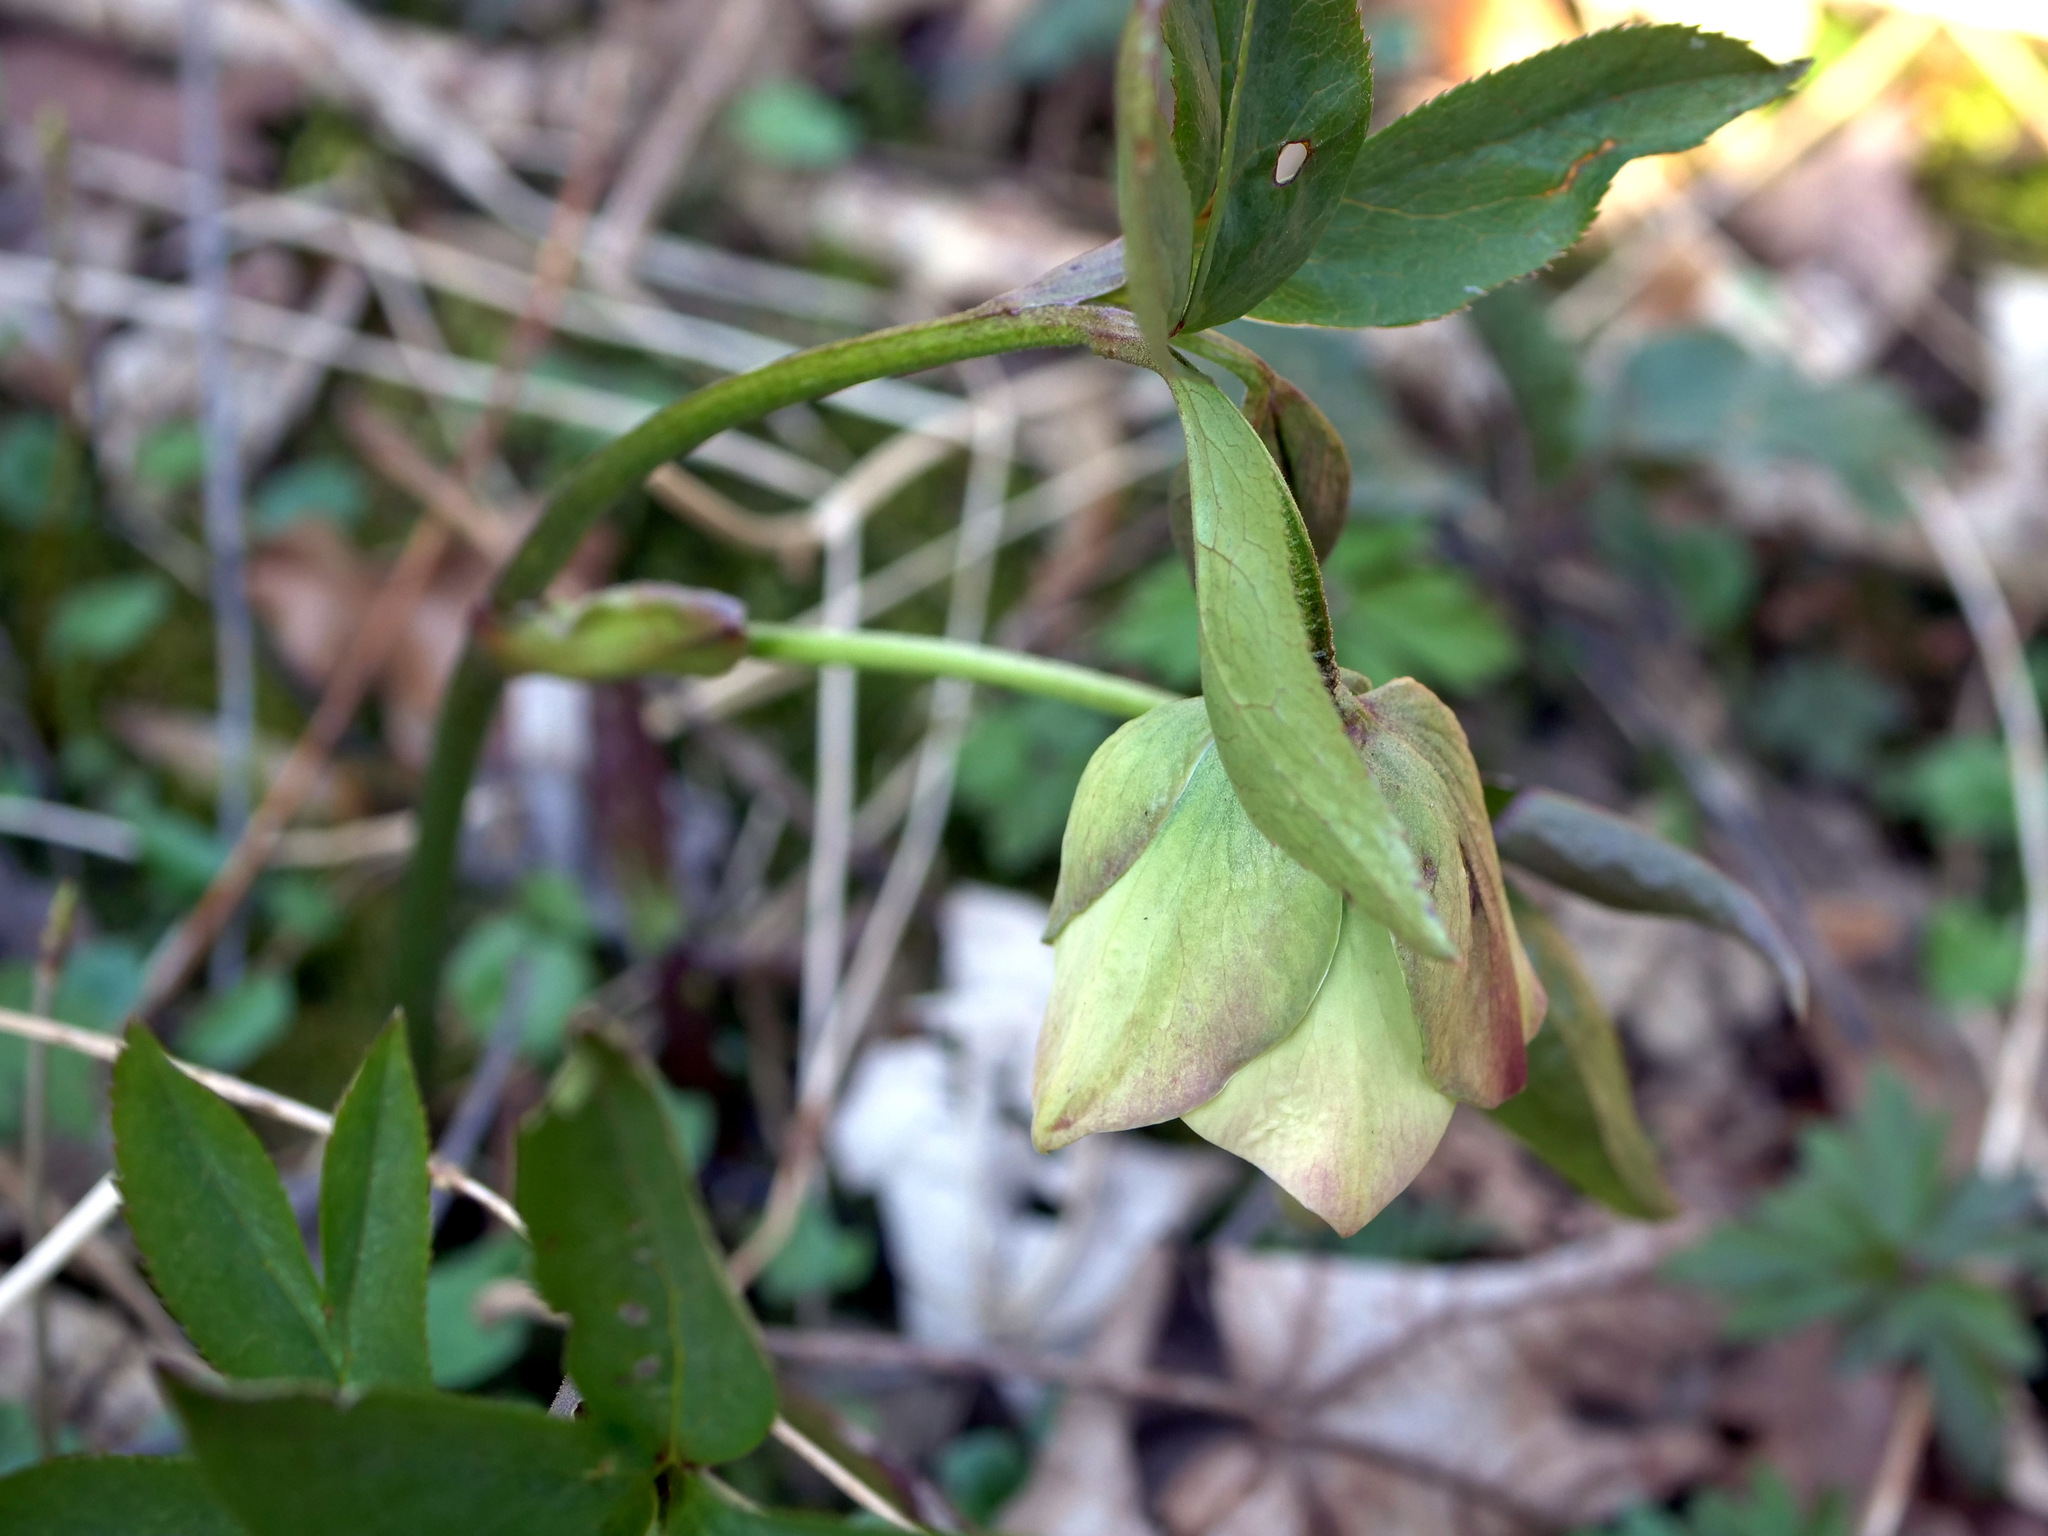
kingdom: Plantae
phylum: Tracheophyta
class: Magnoliopsida
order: Ranunculales
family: Ranunculaceae
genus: Helleborus
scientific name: Helleborus foetidus
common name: Stinking hellebore
